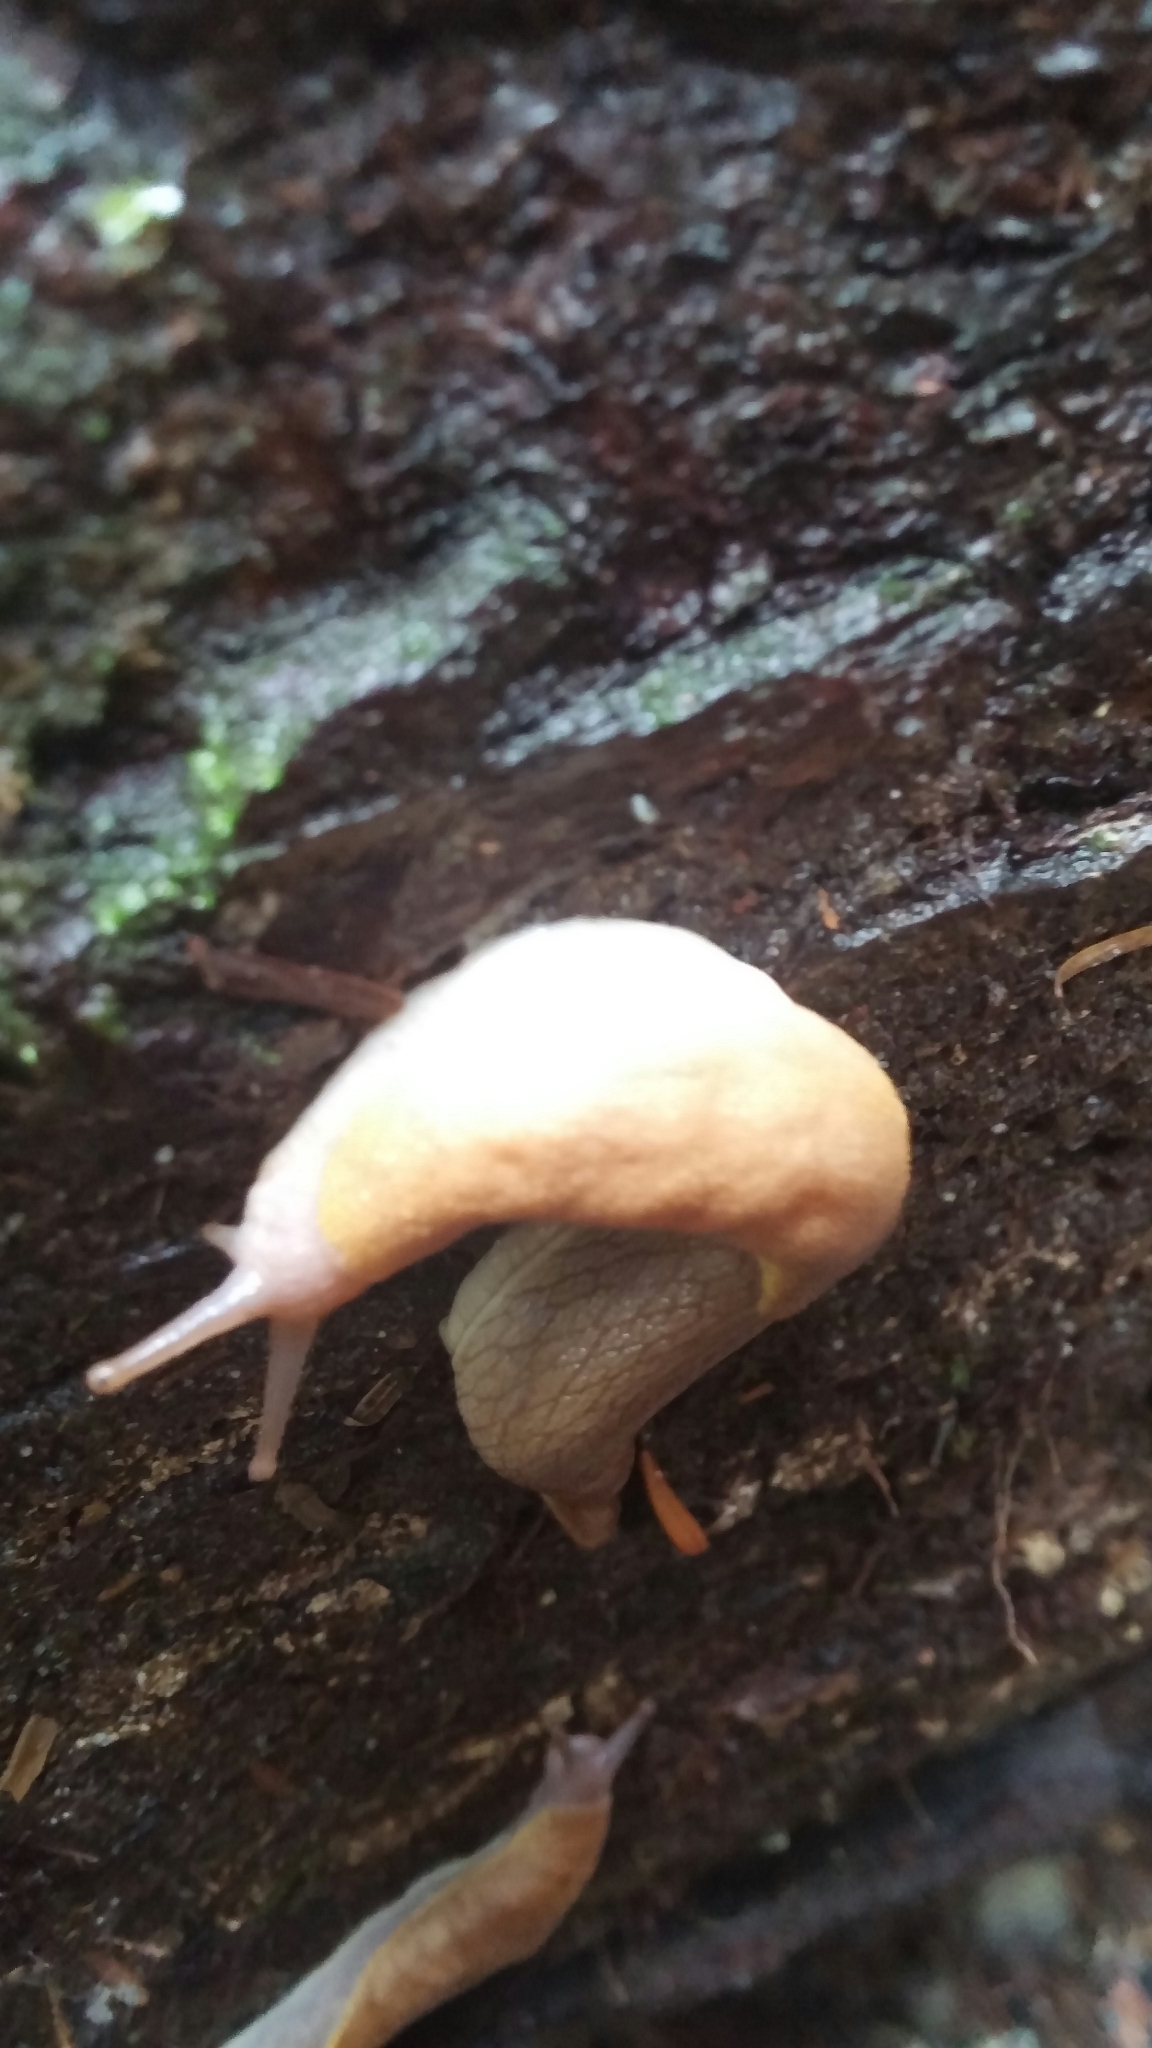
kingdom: Animalia
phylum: Mollusca
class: Gastropoda
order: Stylommatophora
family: Ariolimacidae
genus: Prophysaon
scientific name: Prophysaon foliolatum
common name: Yellow-bordered taildropper
